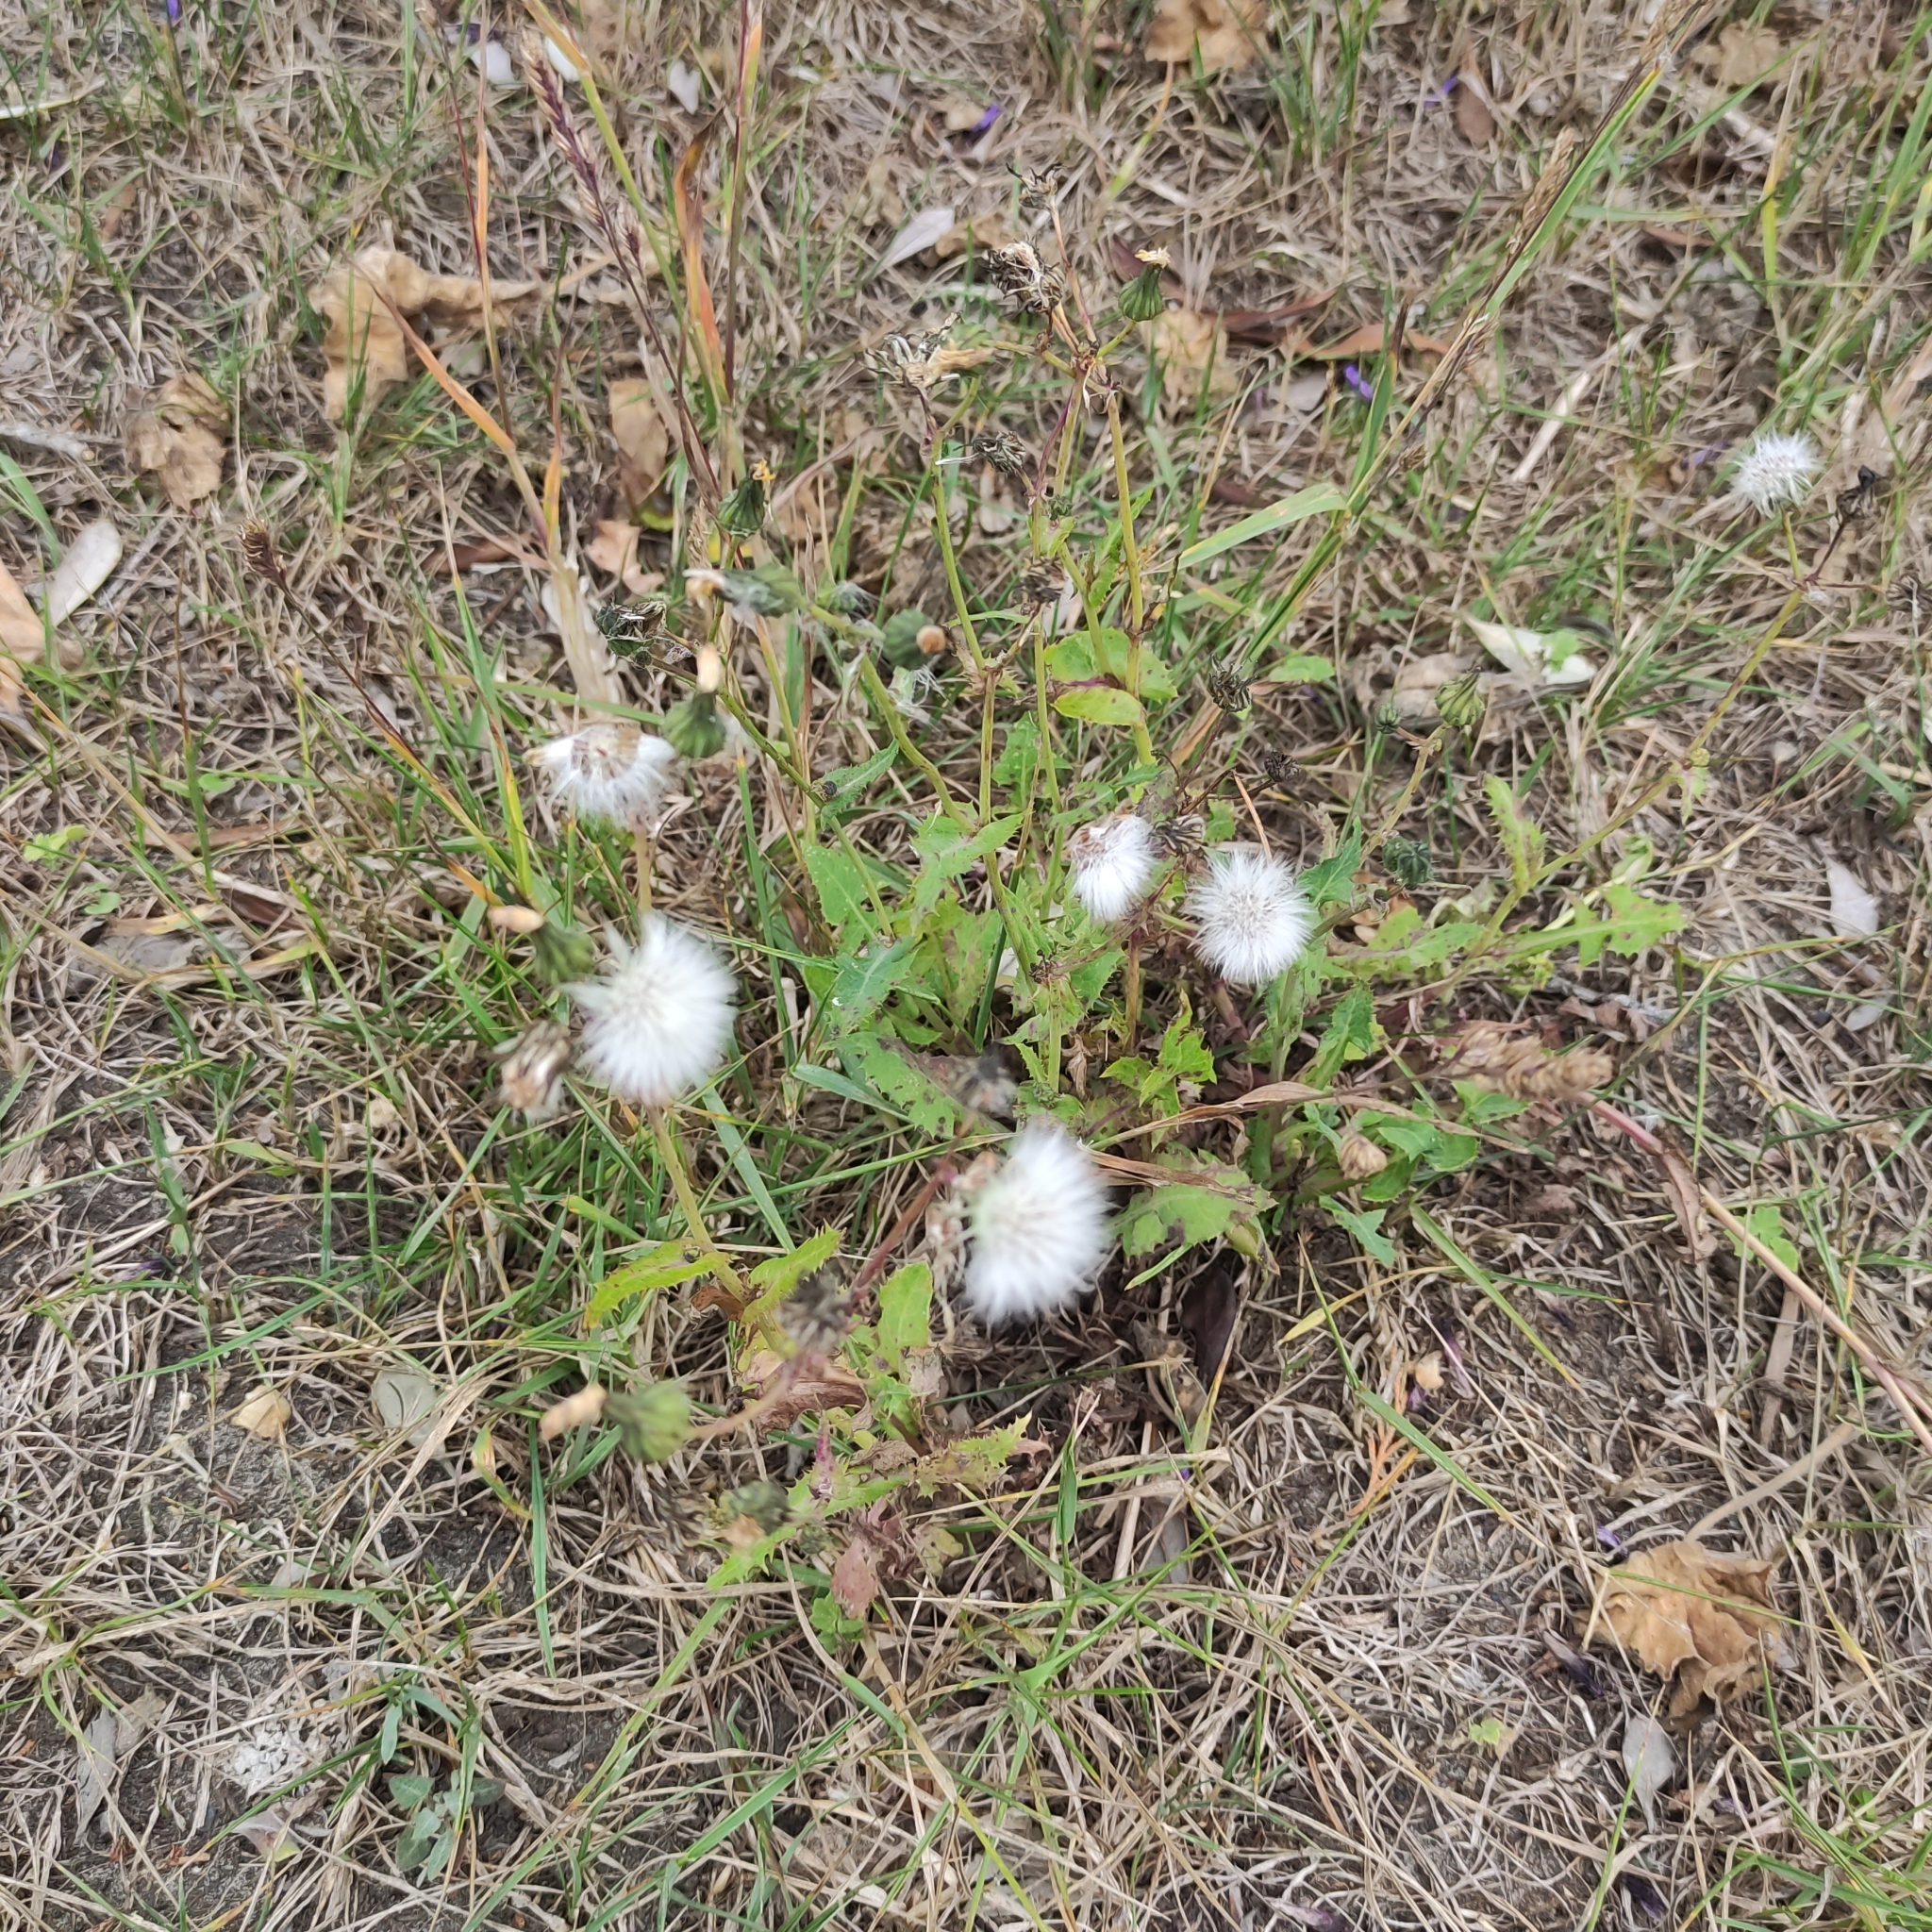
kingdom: Plantae
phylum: Tracheophyta
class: Magnoliopsida
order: Asterales
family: Asteraceae
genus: Sonchus
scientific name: Sonchus oleraceus
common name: Common sowthistle
